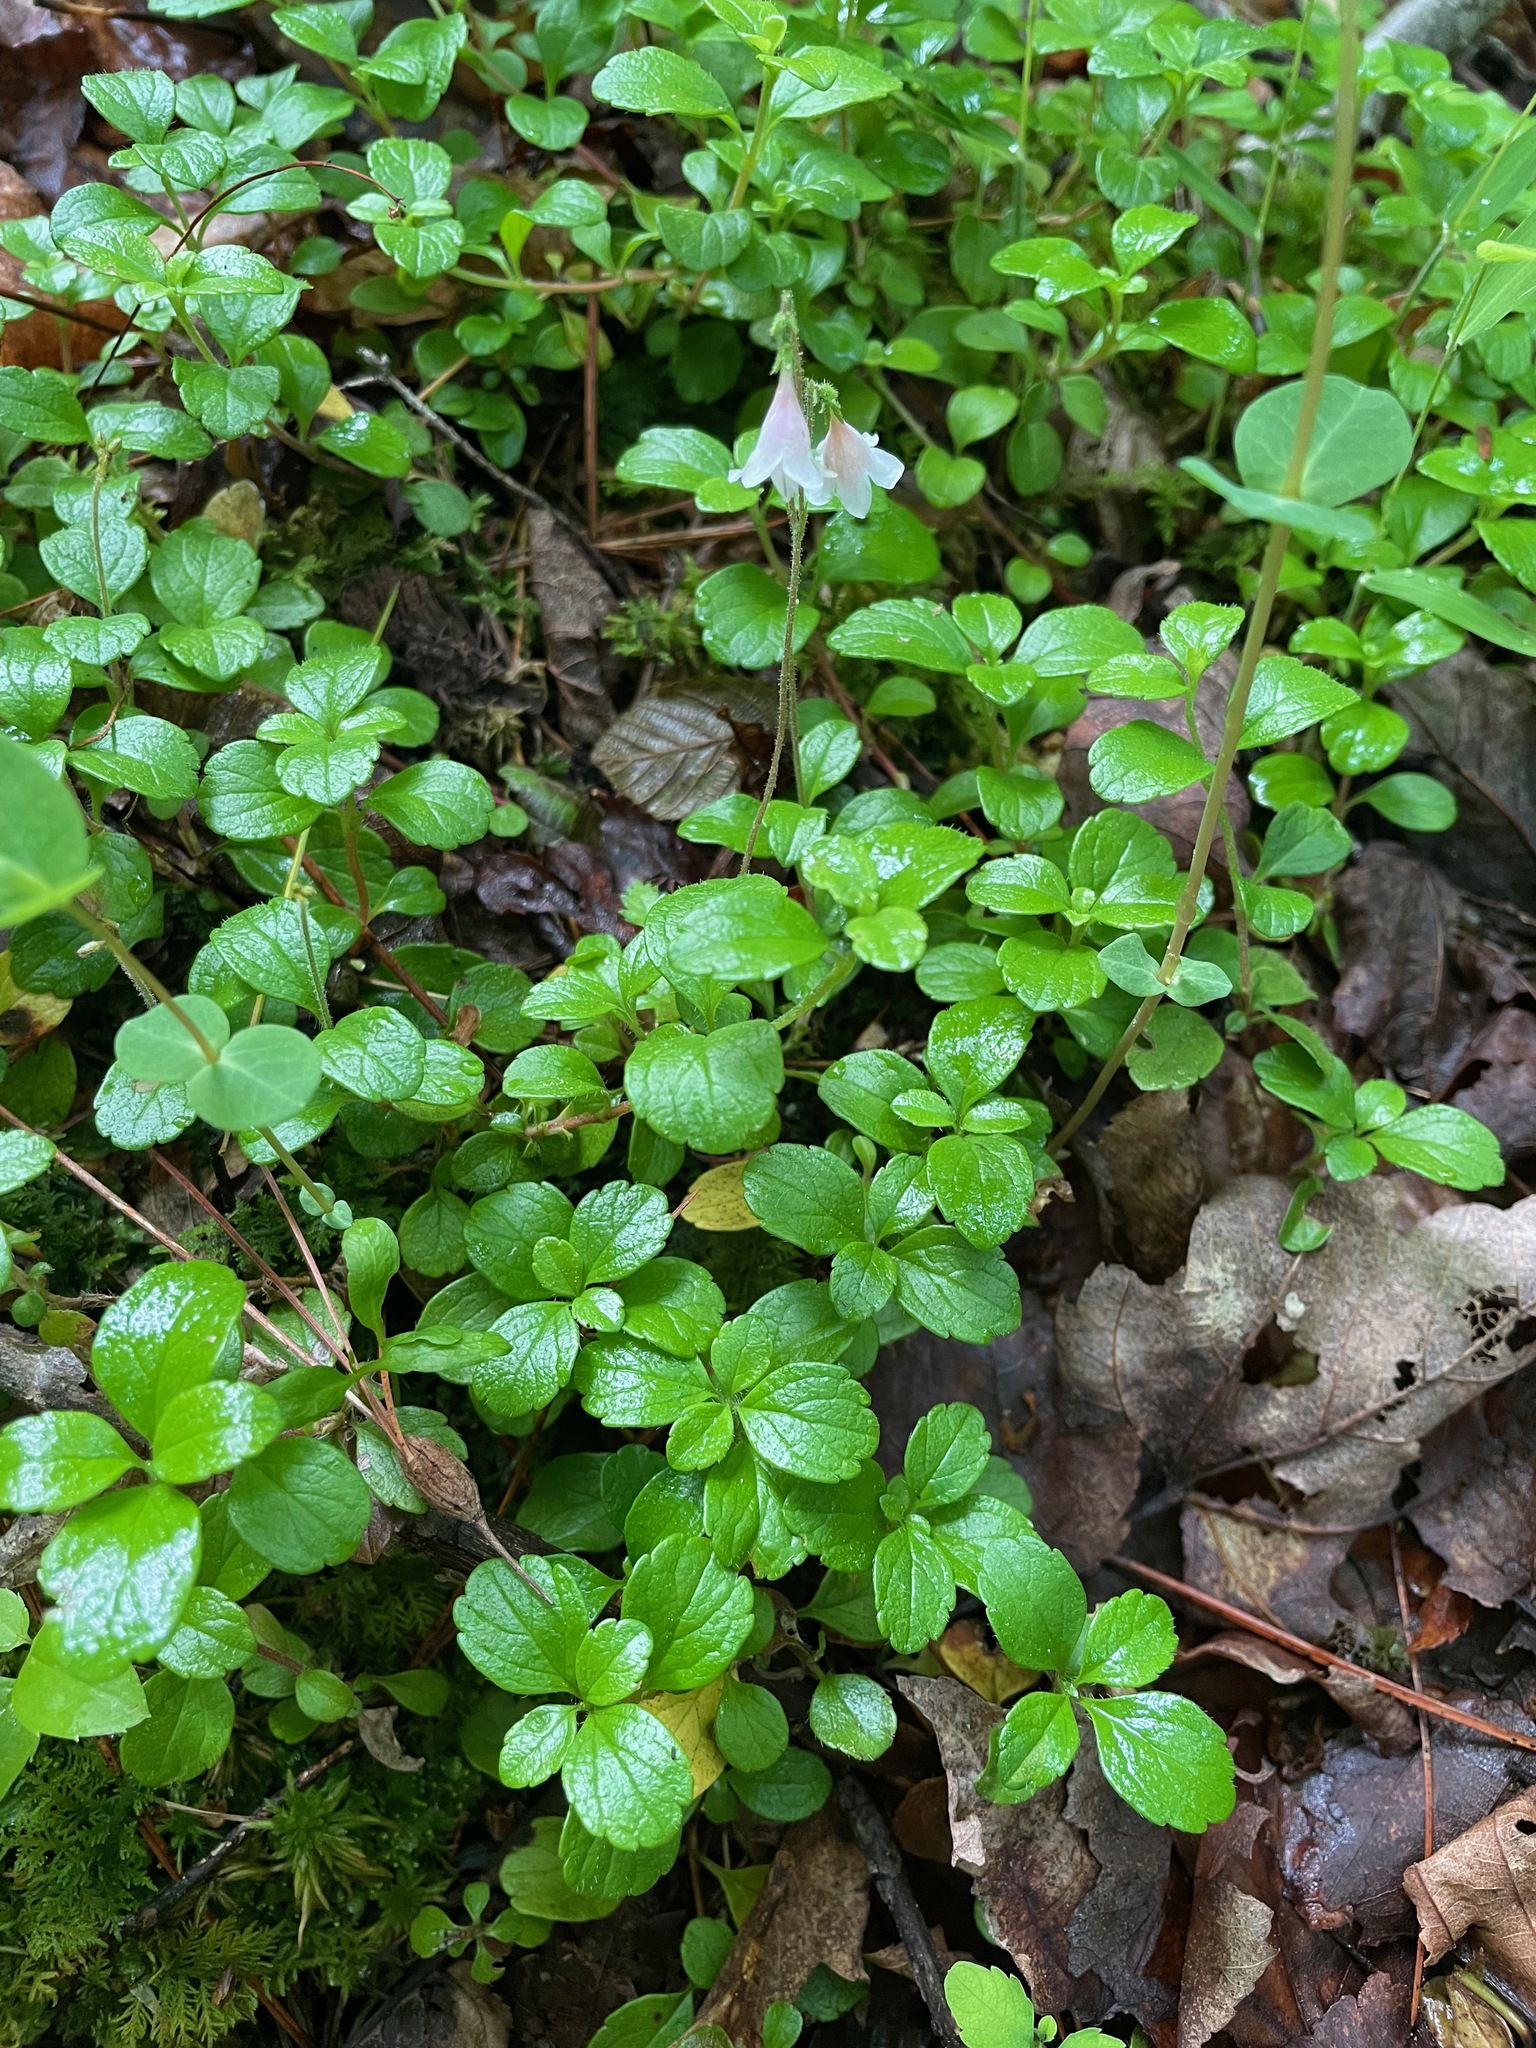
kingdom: Plantae
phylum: Tracheophyta
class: Magnoliopsida
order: Dipsacales
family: Caprifoliaceae
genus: Linnaea
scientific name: Linnaea borealis
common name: Twinflower
